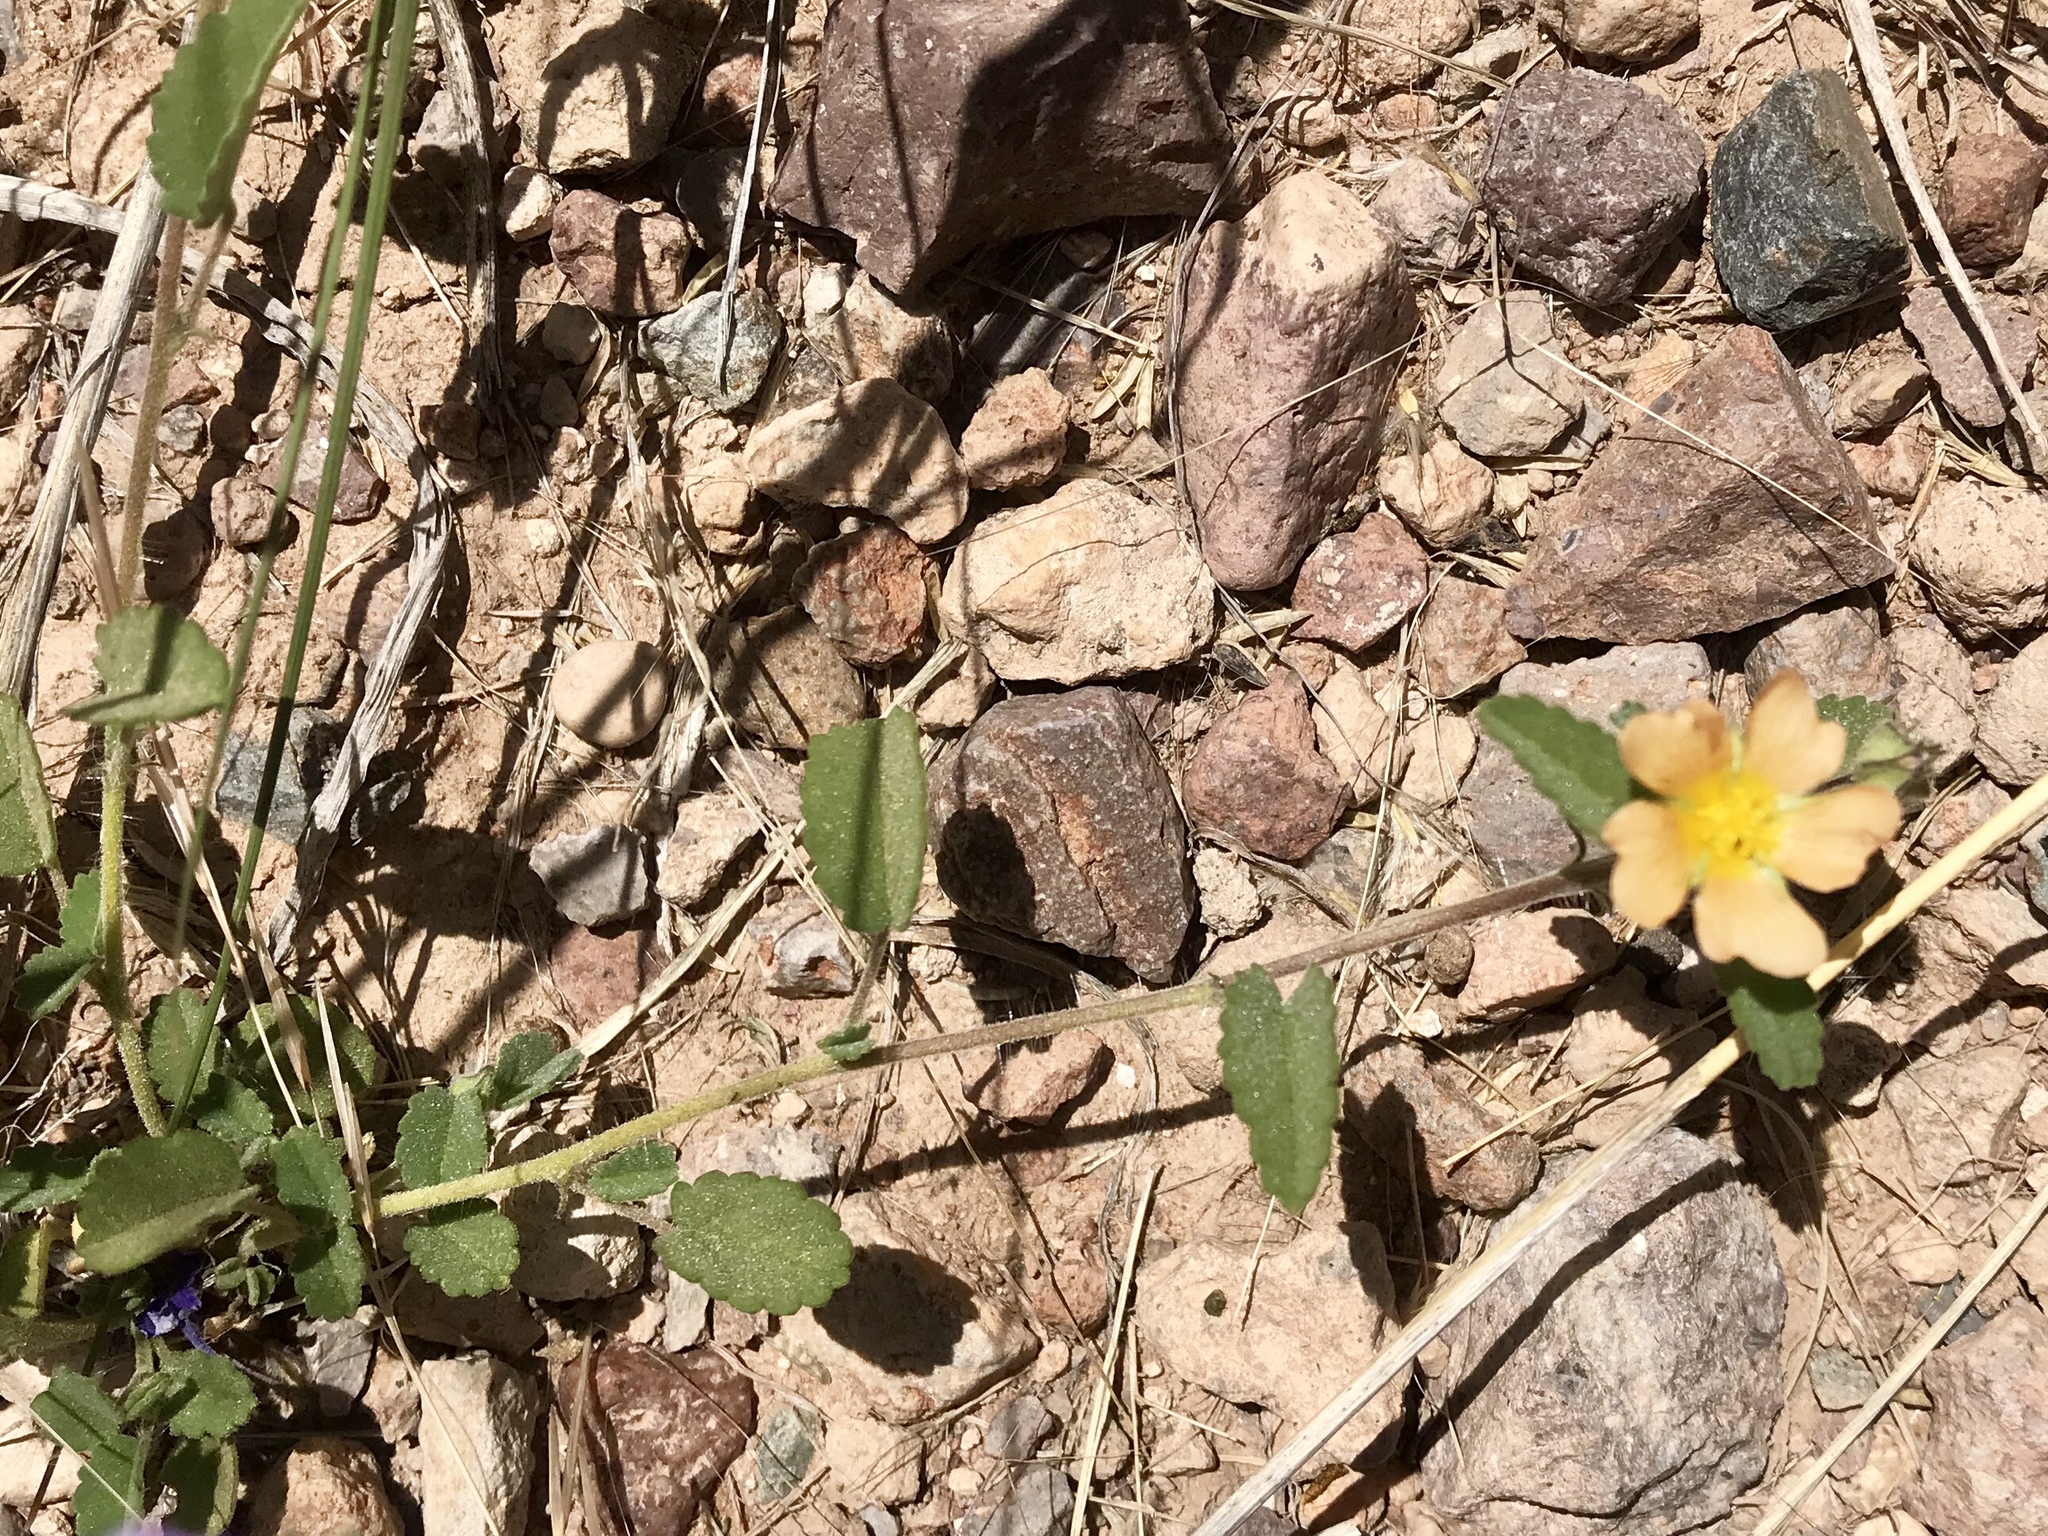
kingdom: Plantae
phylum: Tracheophyta
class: Magnoliopsida
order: Malvales
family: Malvaceae
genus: Sida
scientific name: Sida abutilifolia
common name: Spreading fanpetals
